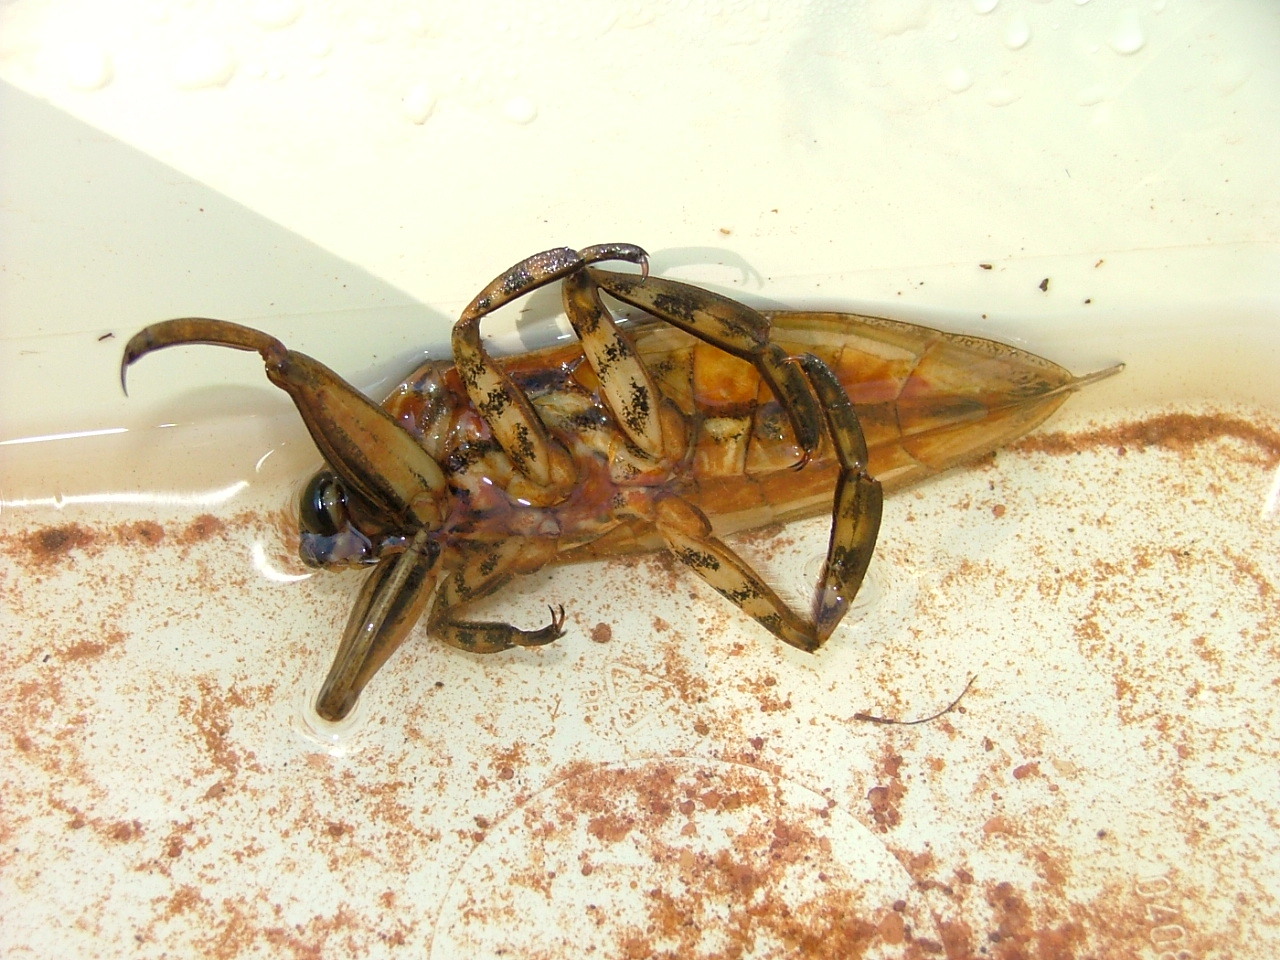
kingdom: Animalia
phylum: Arthropoda
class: Insecta
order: Hemiptera
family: Belostomatidae
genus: Lethocerus
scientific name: Lethocerus cordofanus
